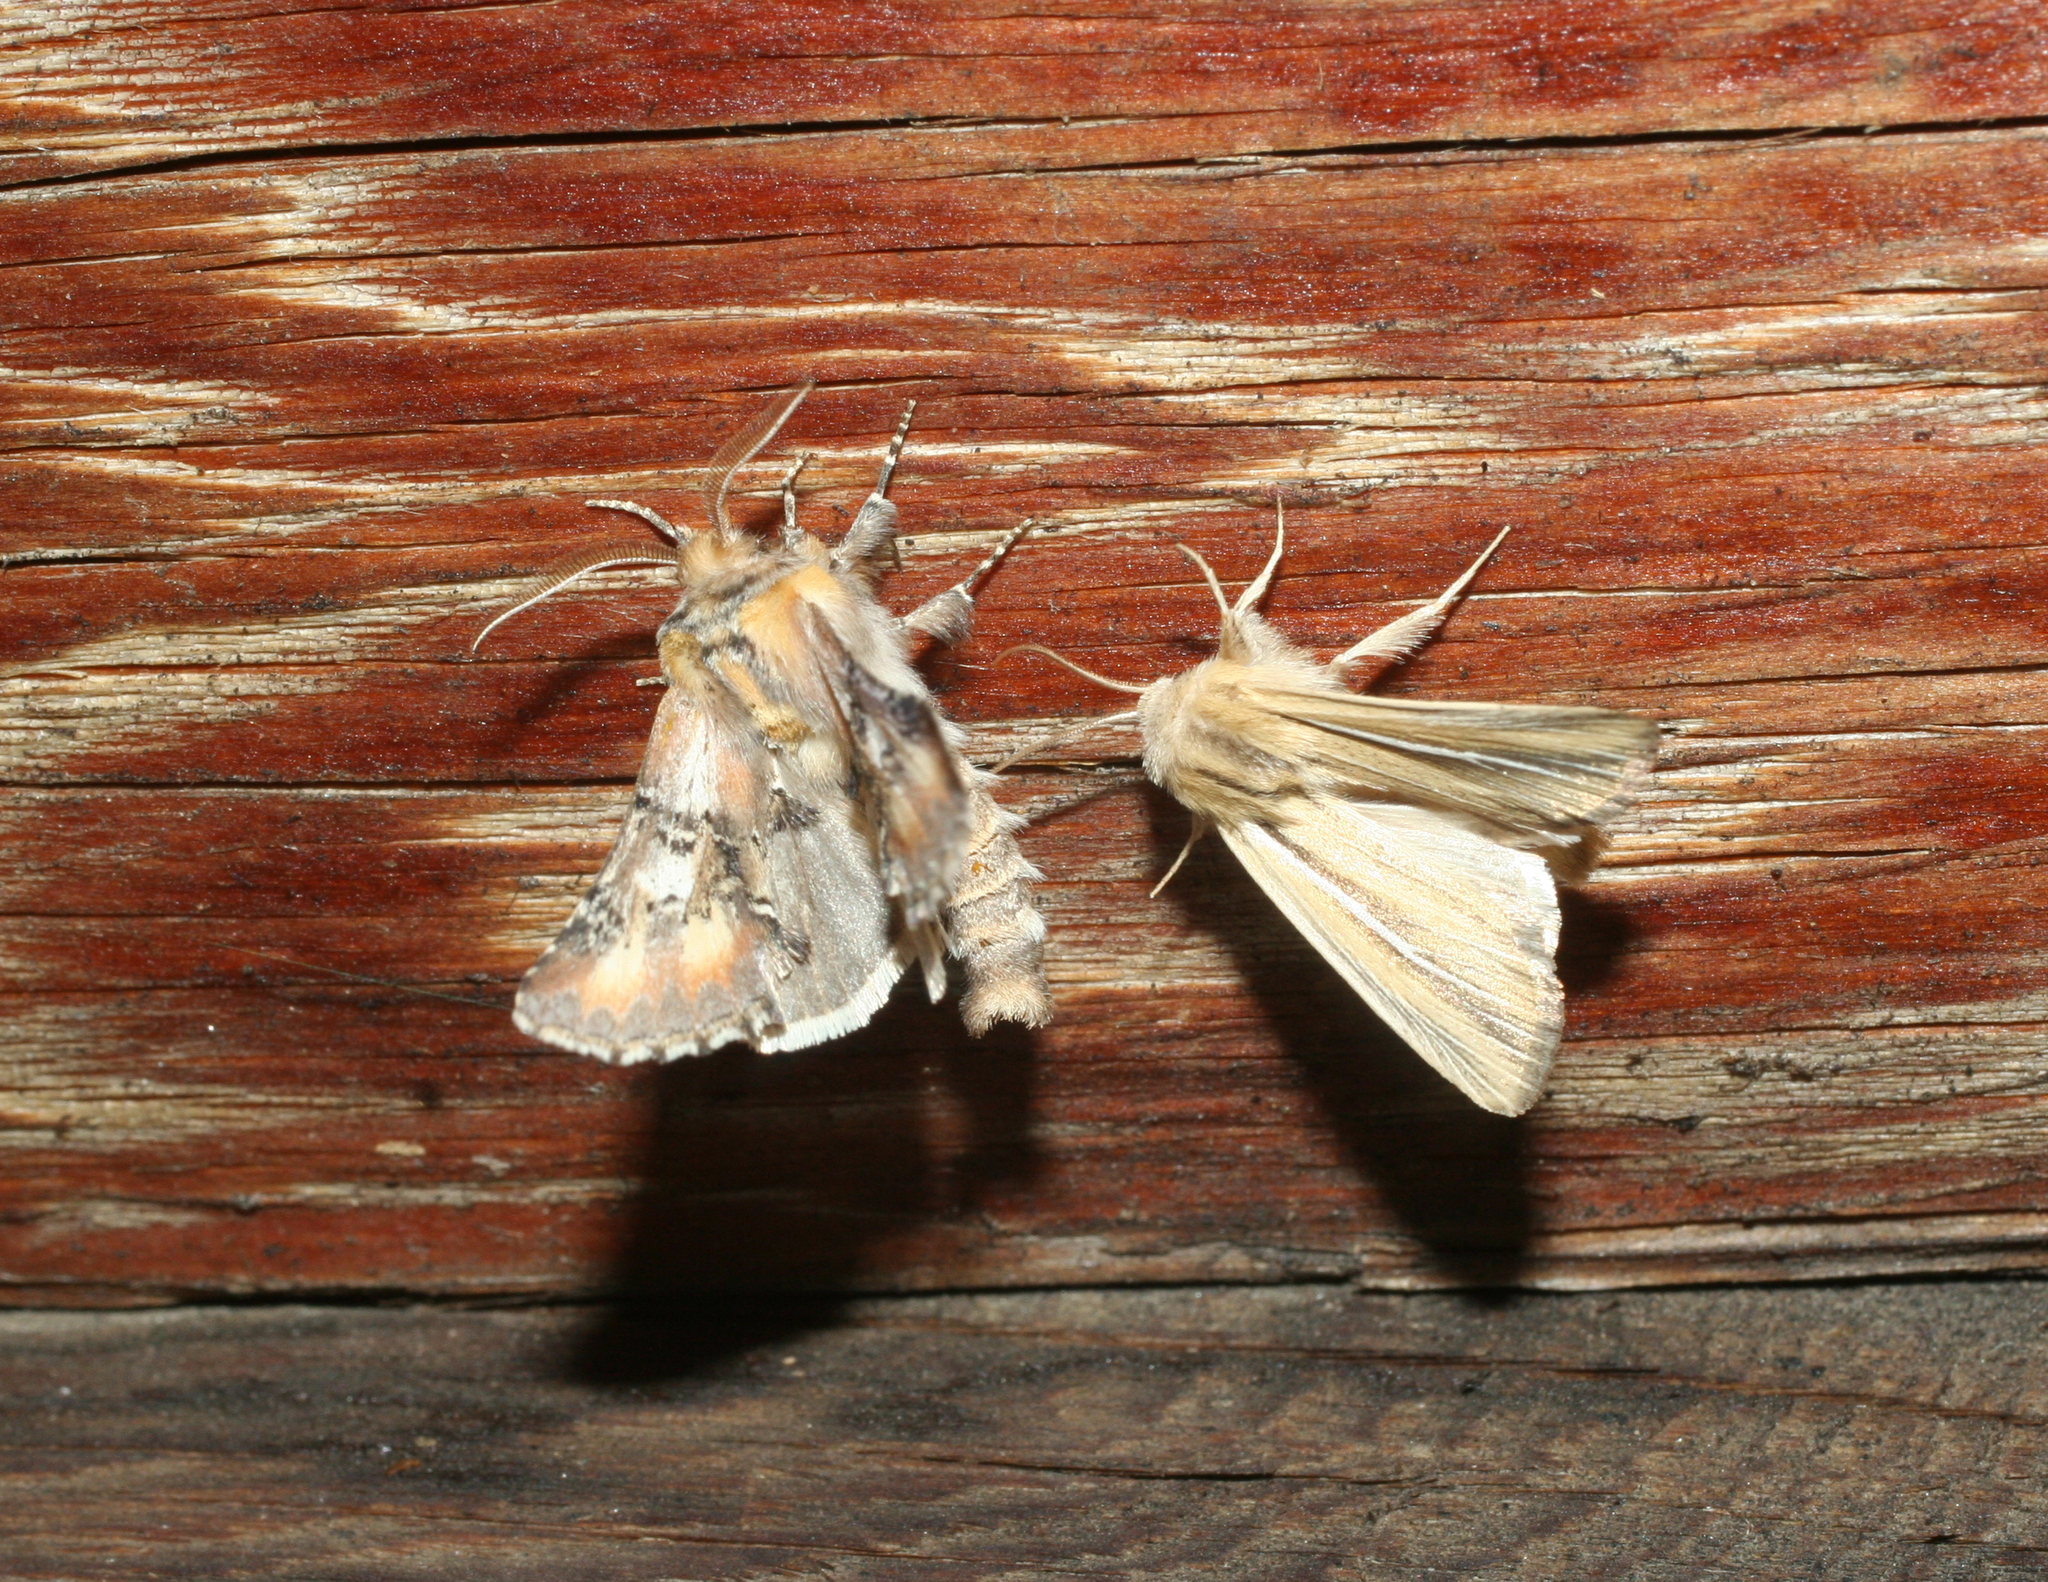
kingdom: Animalia
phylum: Arthropoda
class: Insecta
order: Lepidoptera
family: Notodontidae
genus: Pterotes
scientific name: Pterotes eugenia
